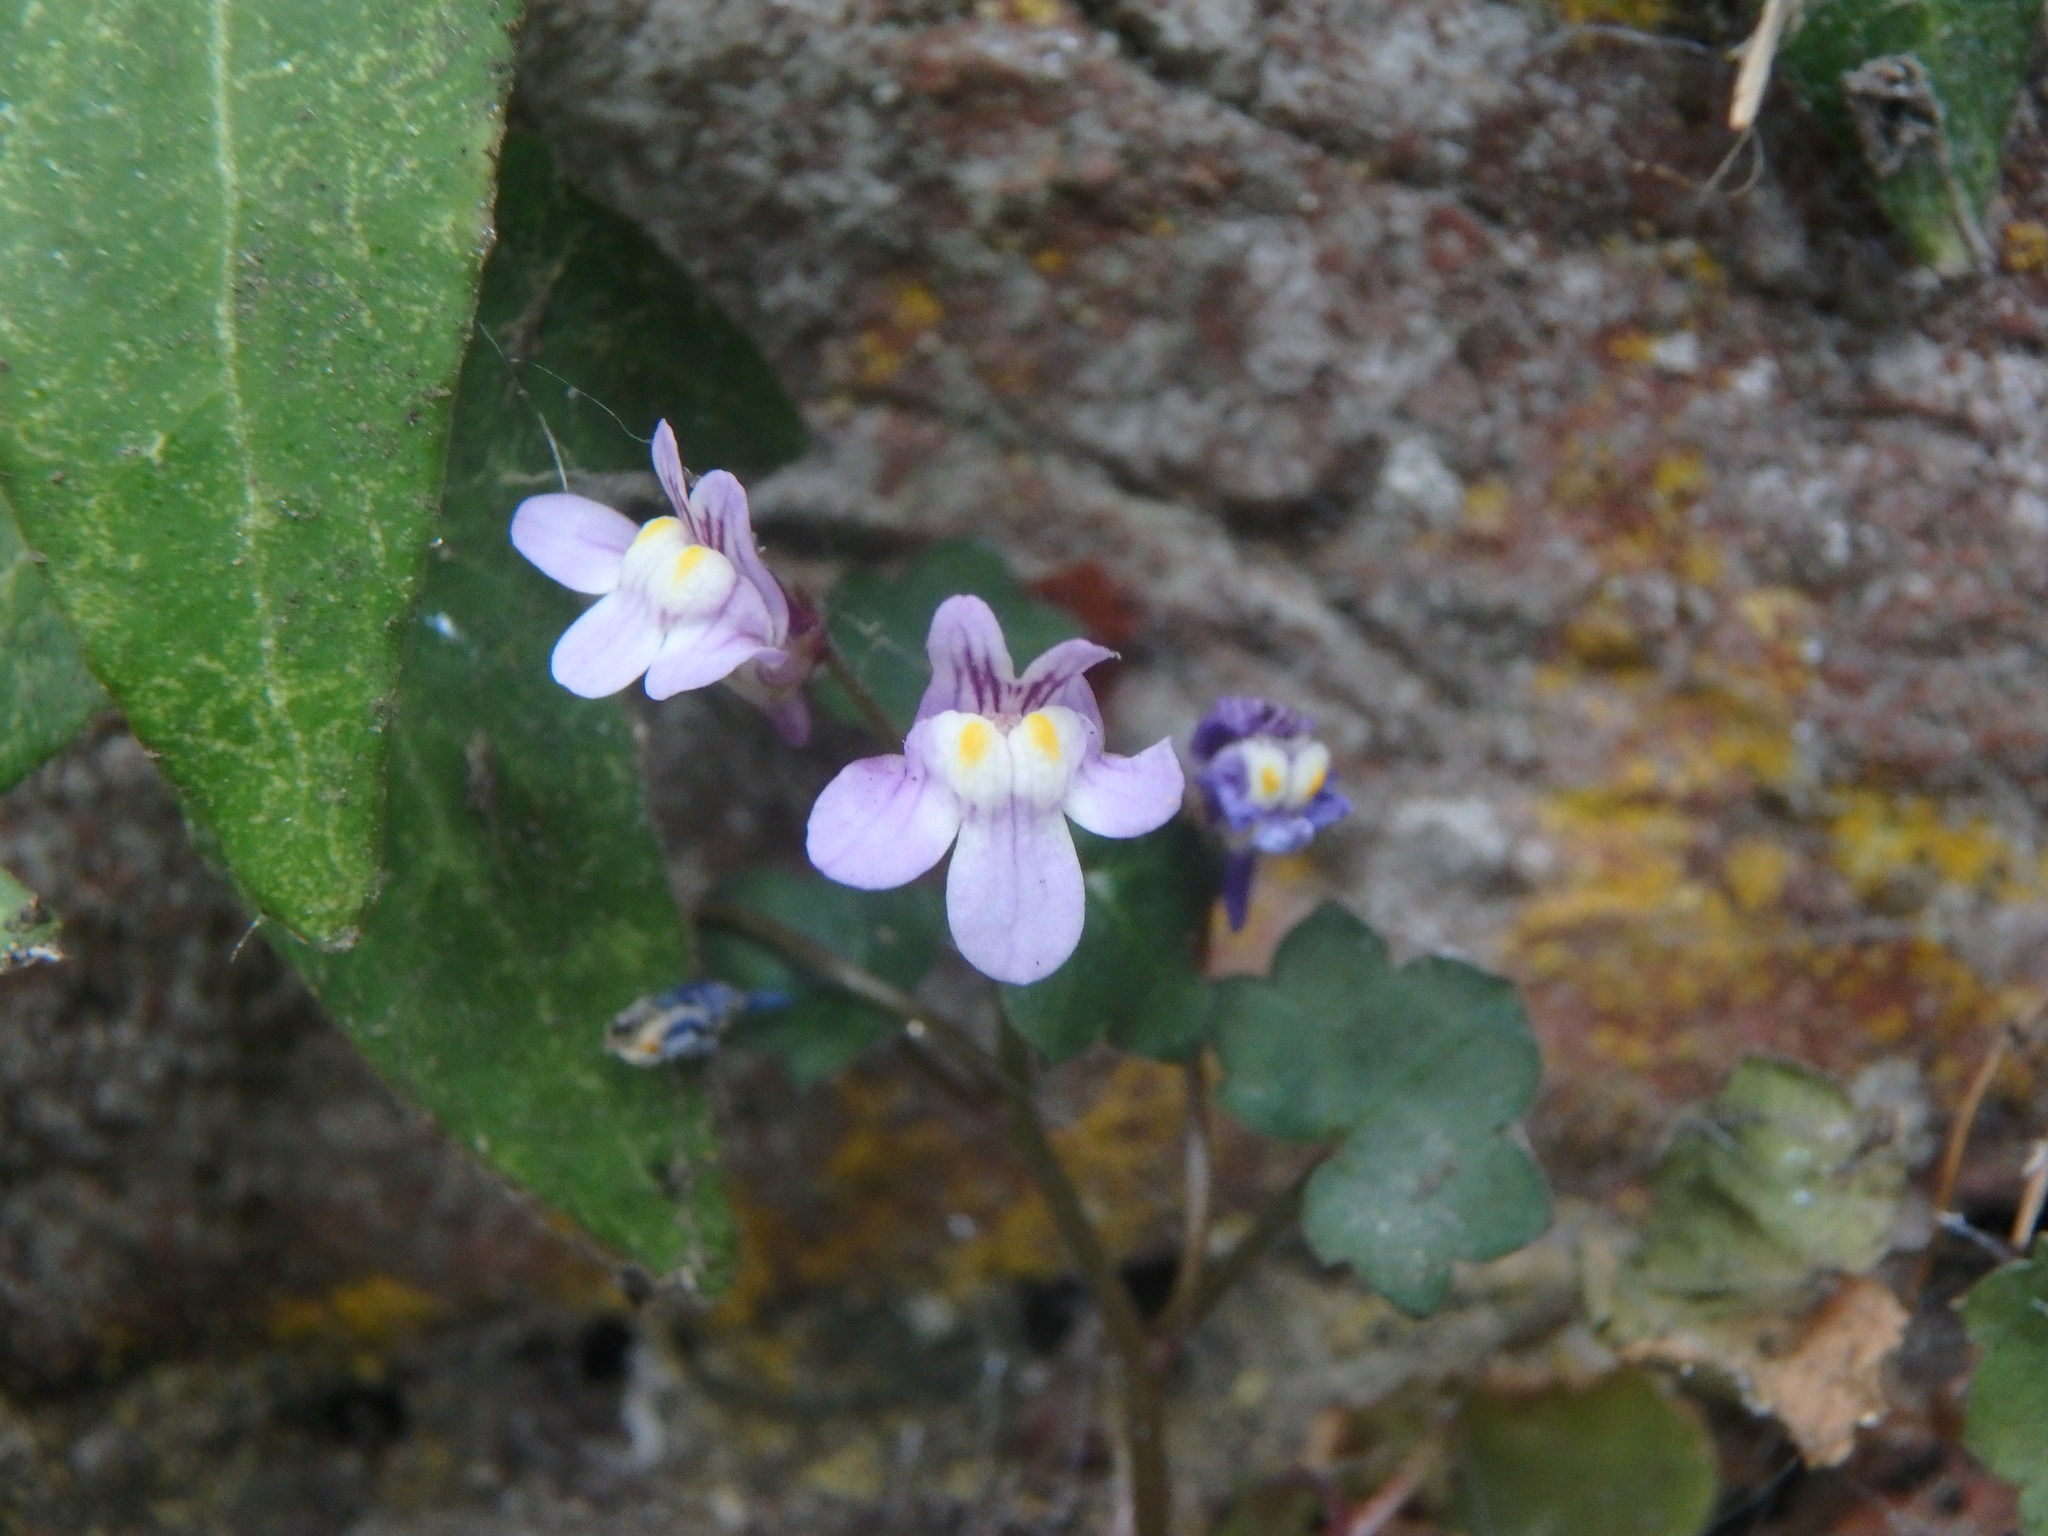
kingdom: Plantae
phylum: Tracheophyta
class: Magnoliopsida
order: Lamiales
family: Plantaginaceae
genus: Cymbalaria
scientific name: Cymbalaria muralis
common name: Ivy-leaved toadflax
